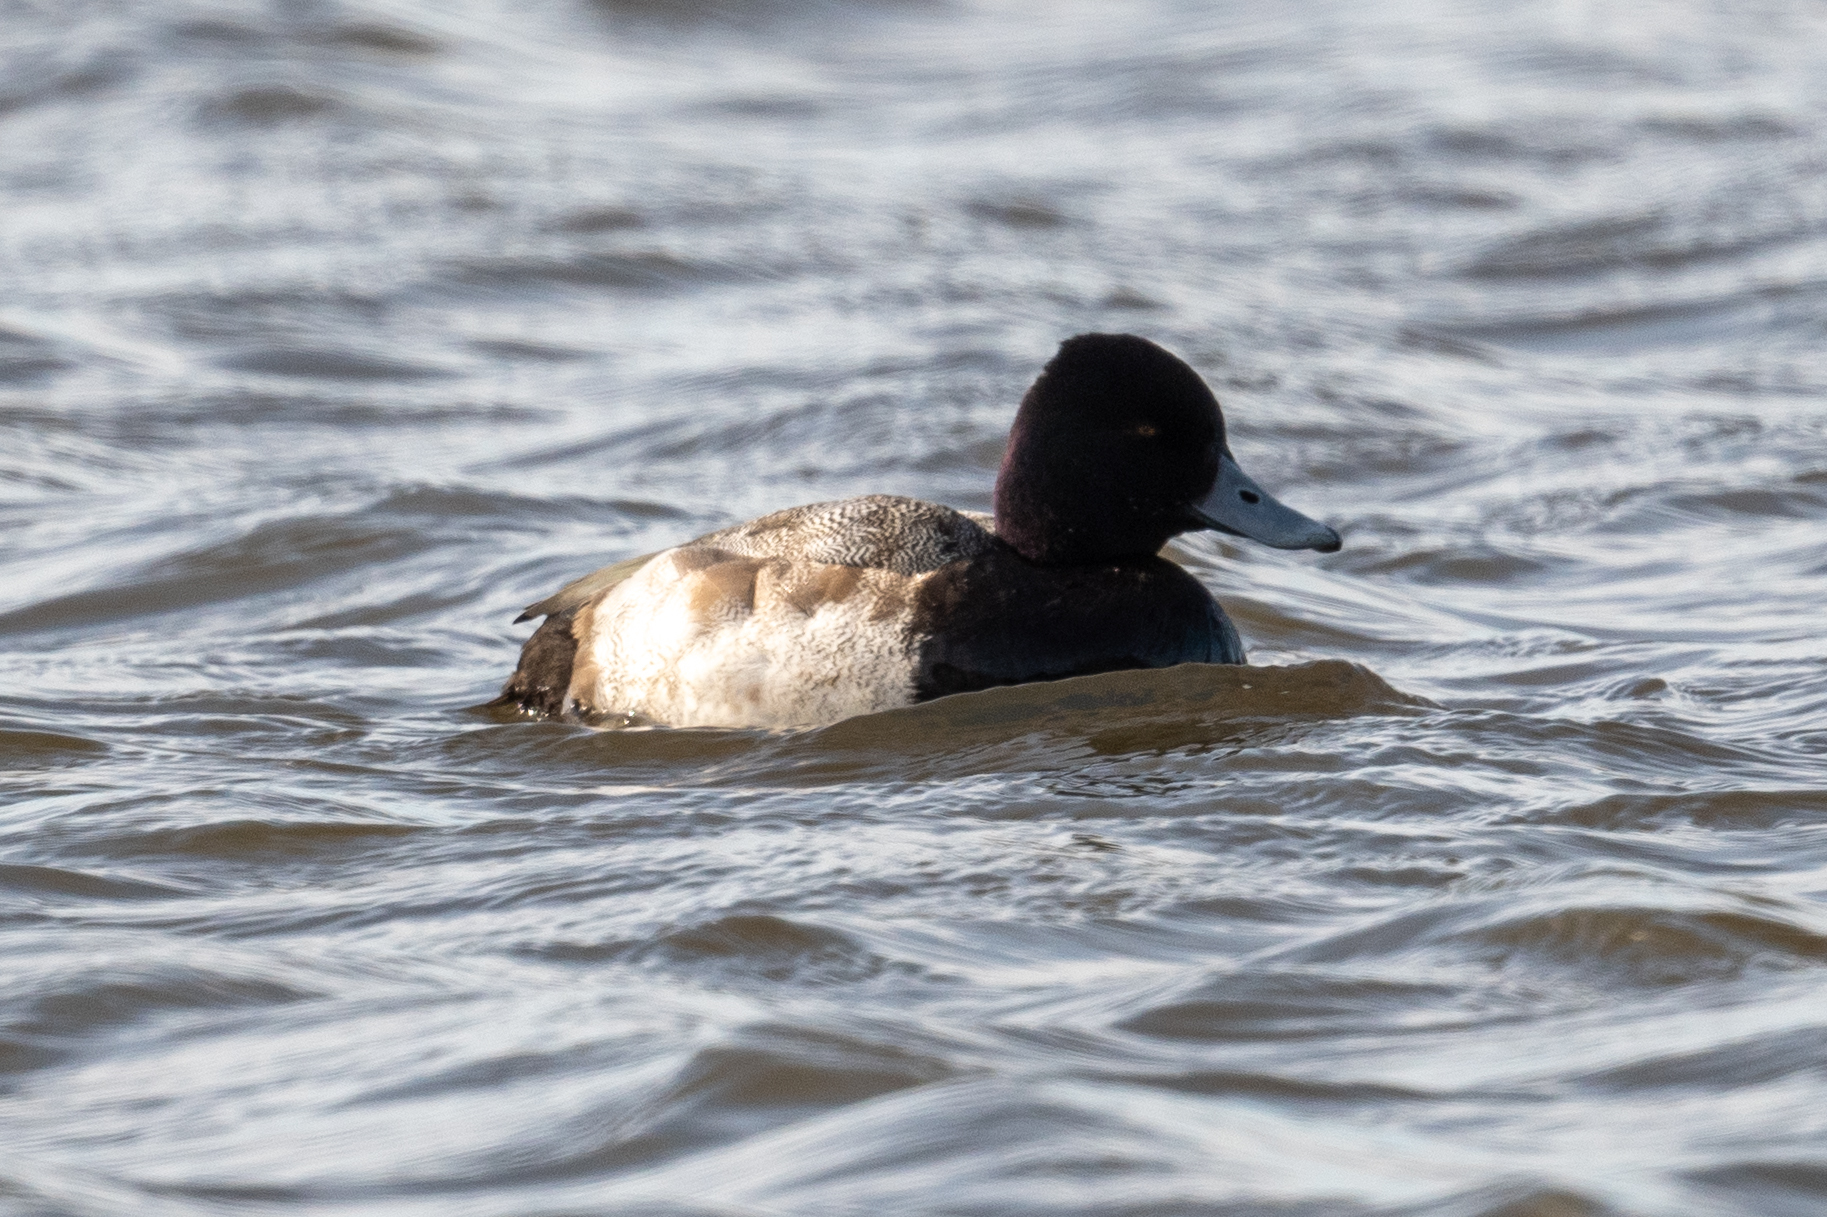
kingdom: Animalia
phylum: Chordata
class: Aves
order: Anseriformes
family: Anatidae
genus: Aythya
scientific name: Aythya affinis
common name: Lesser scaup
